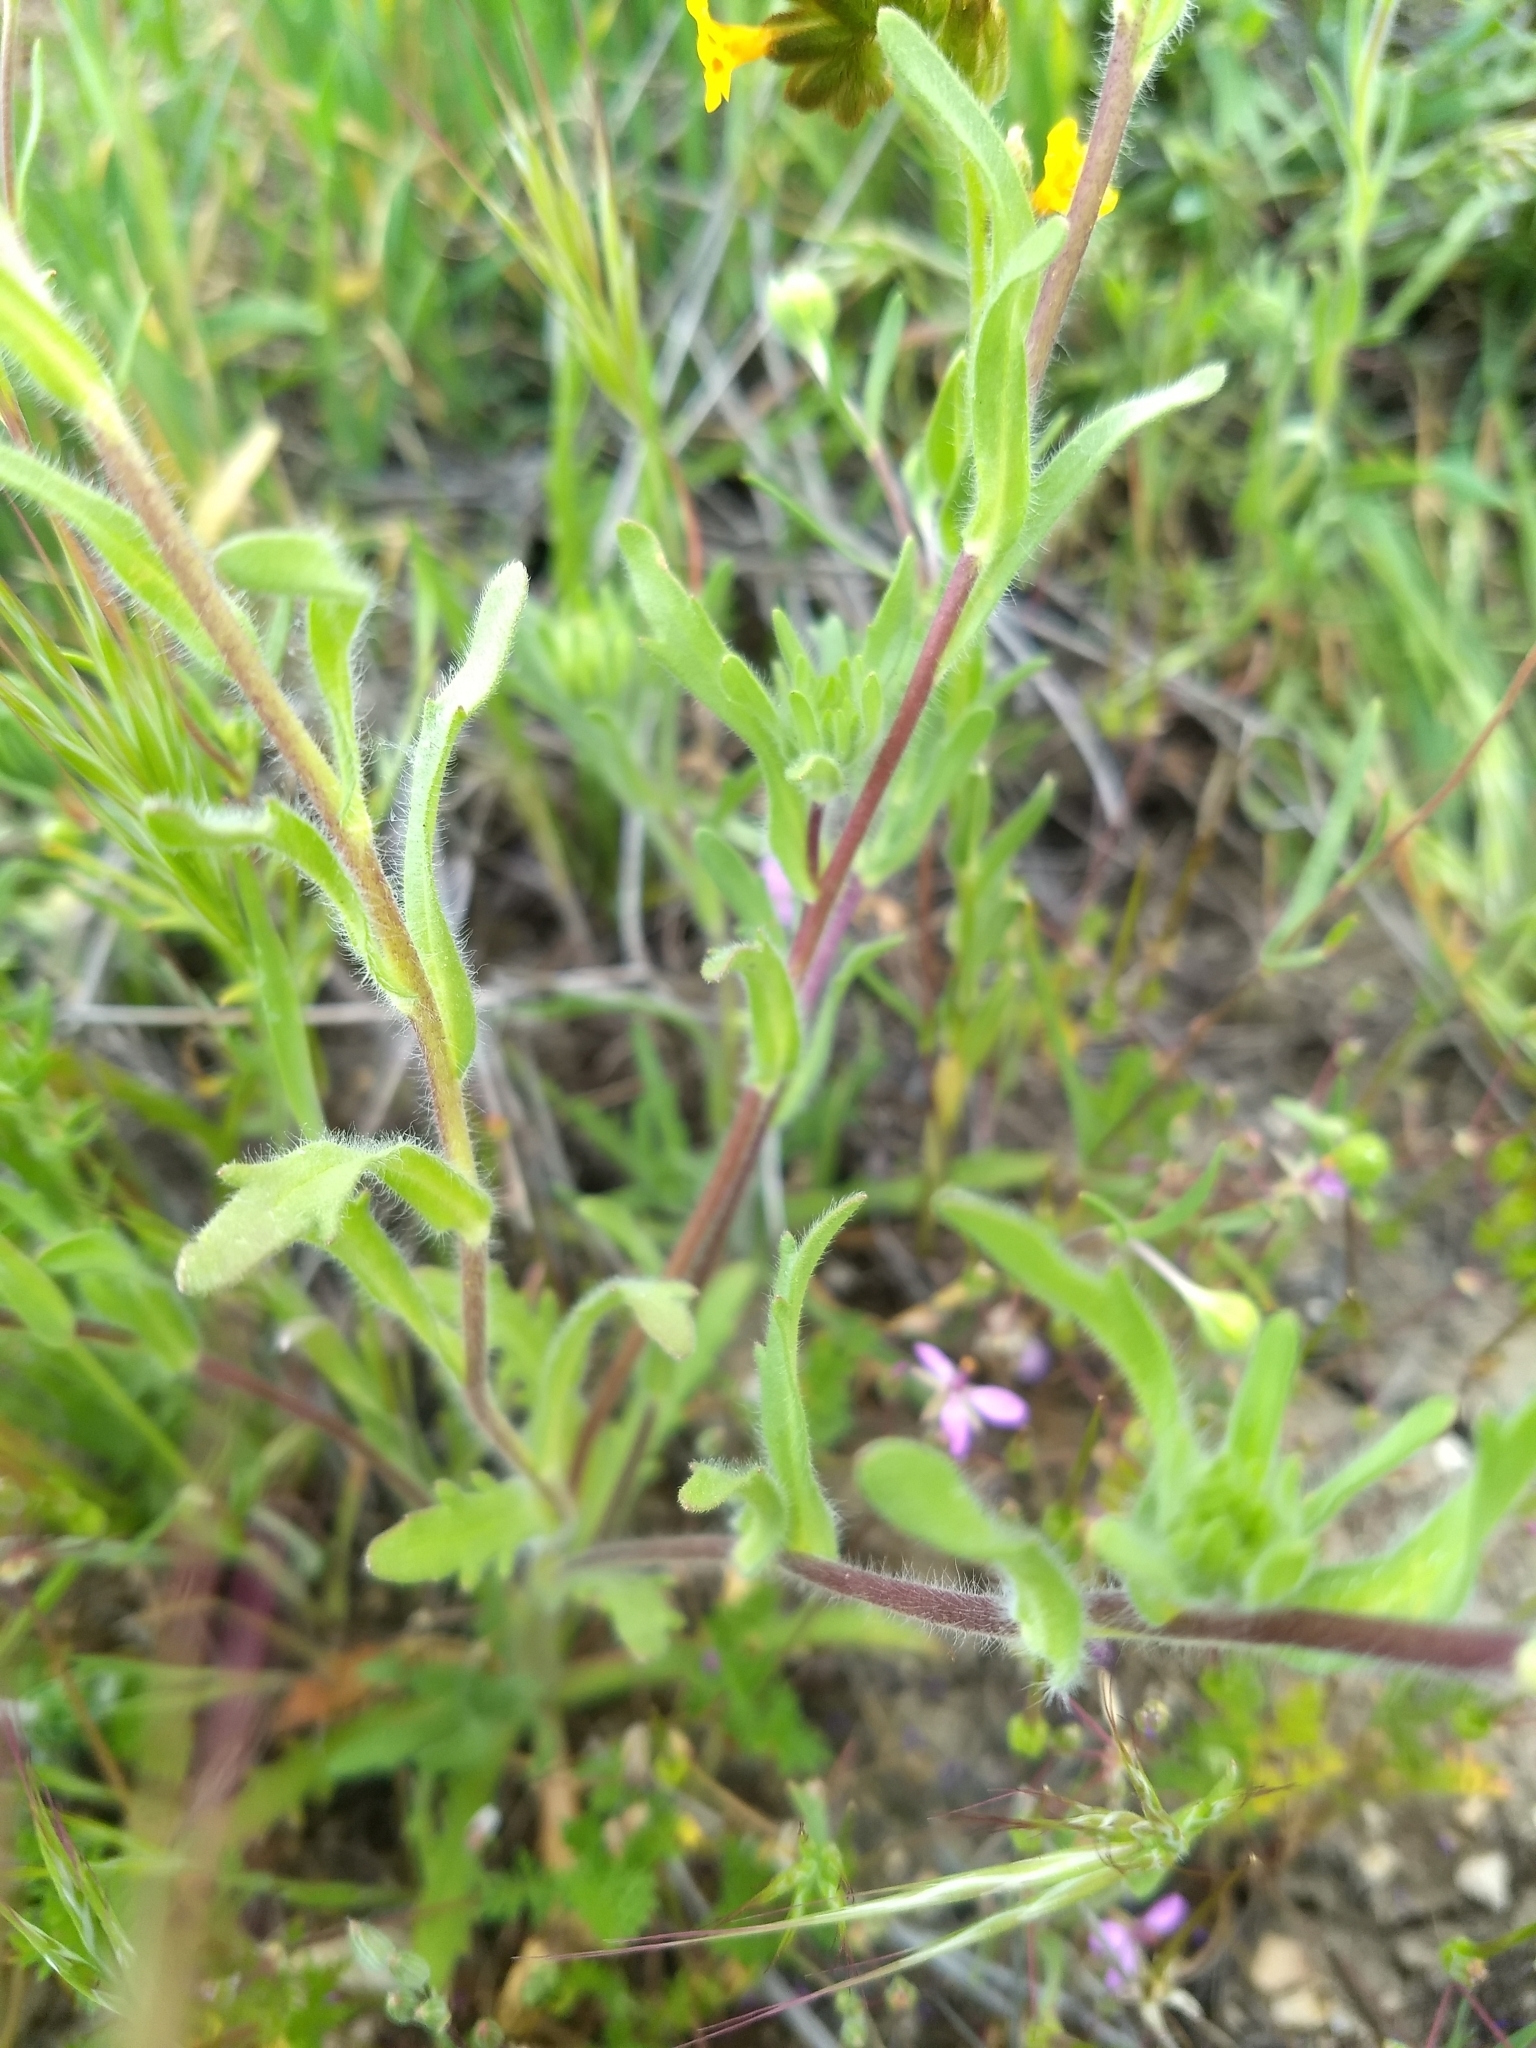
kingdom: Plantae
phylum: Tracheophyta
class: Magnoliopsida
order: Asterales
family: Asteraceae
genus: Layia
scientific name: Layia platyglossa
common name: Tidy-tips
